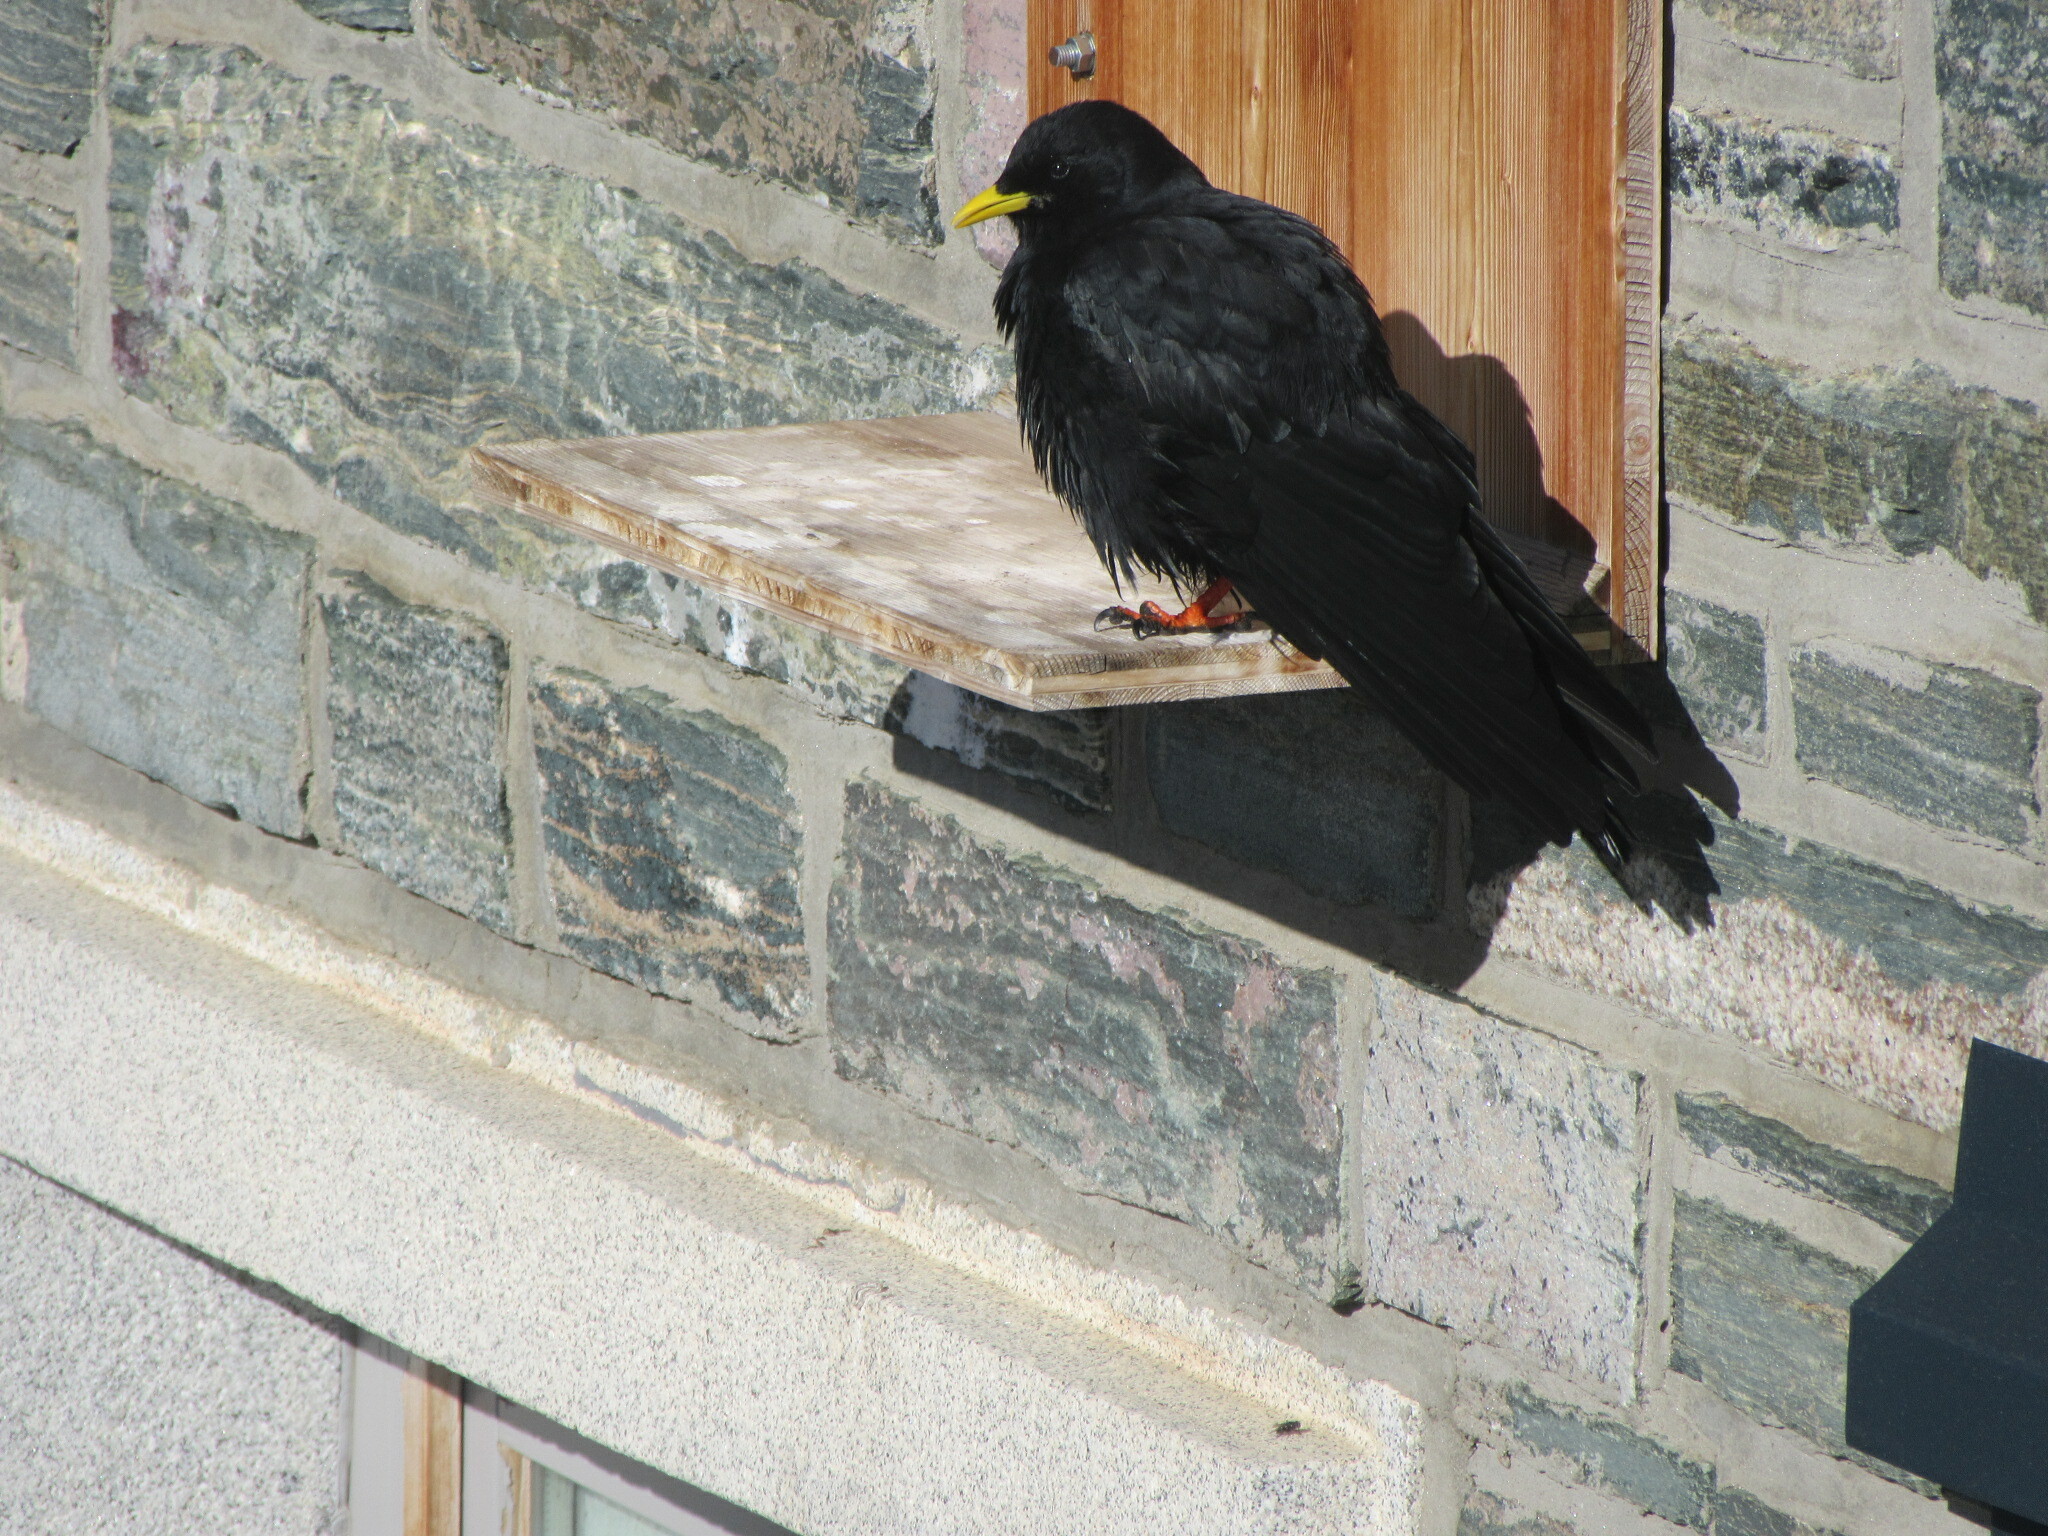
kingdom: Animalia
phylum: Chordata
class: Aves
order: Passeriformes
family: Corvidae
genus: Pyrrhocorax
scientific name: Pyrrhocorax graculus
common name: Alpine chough
